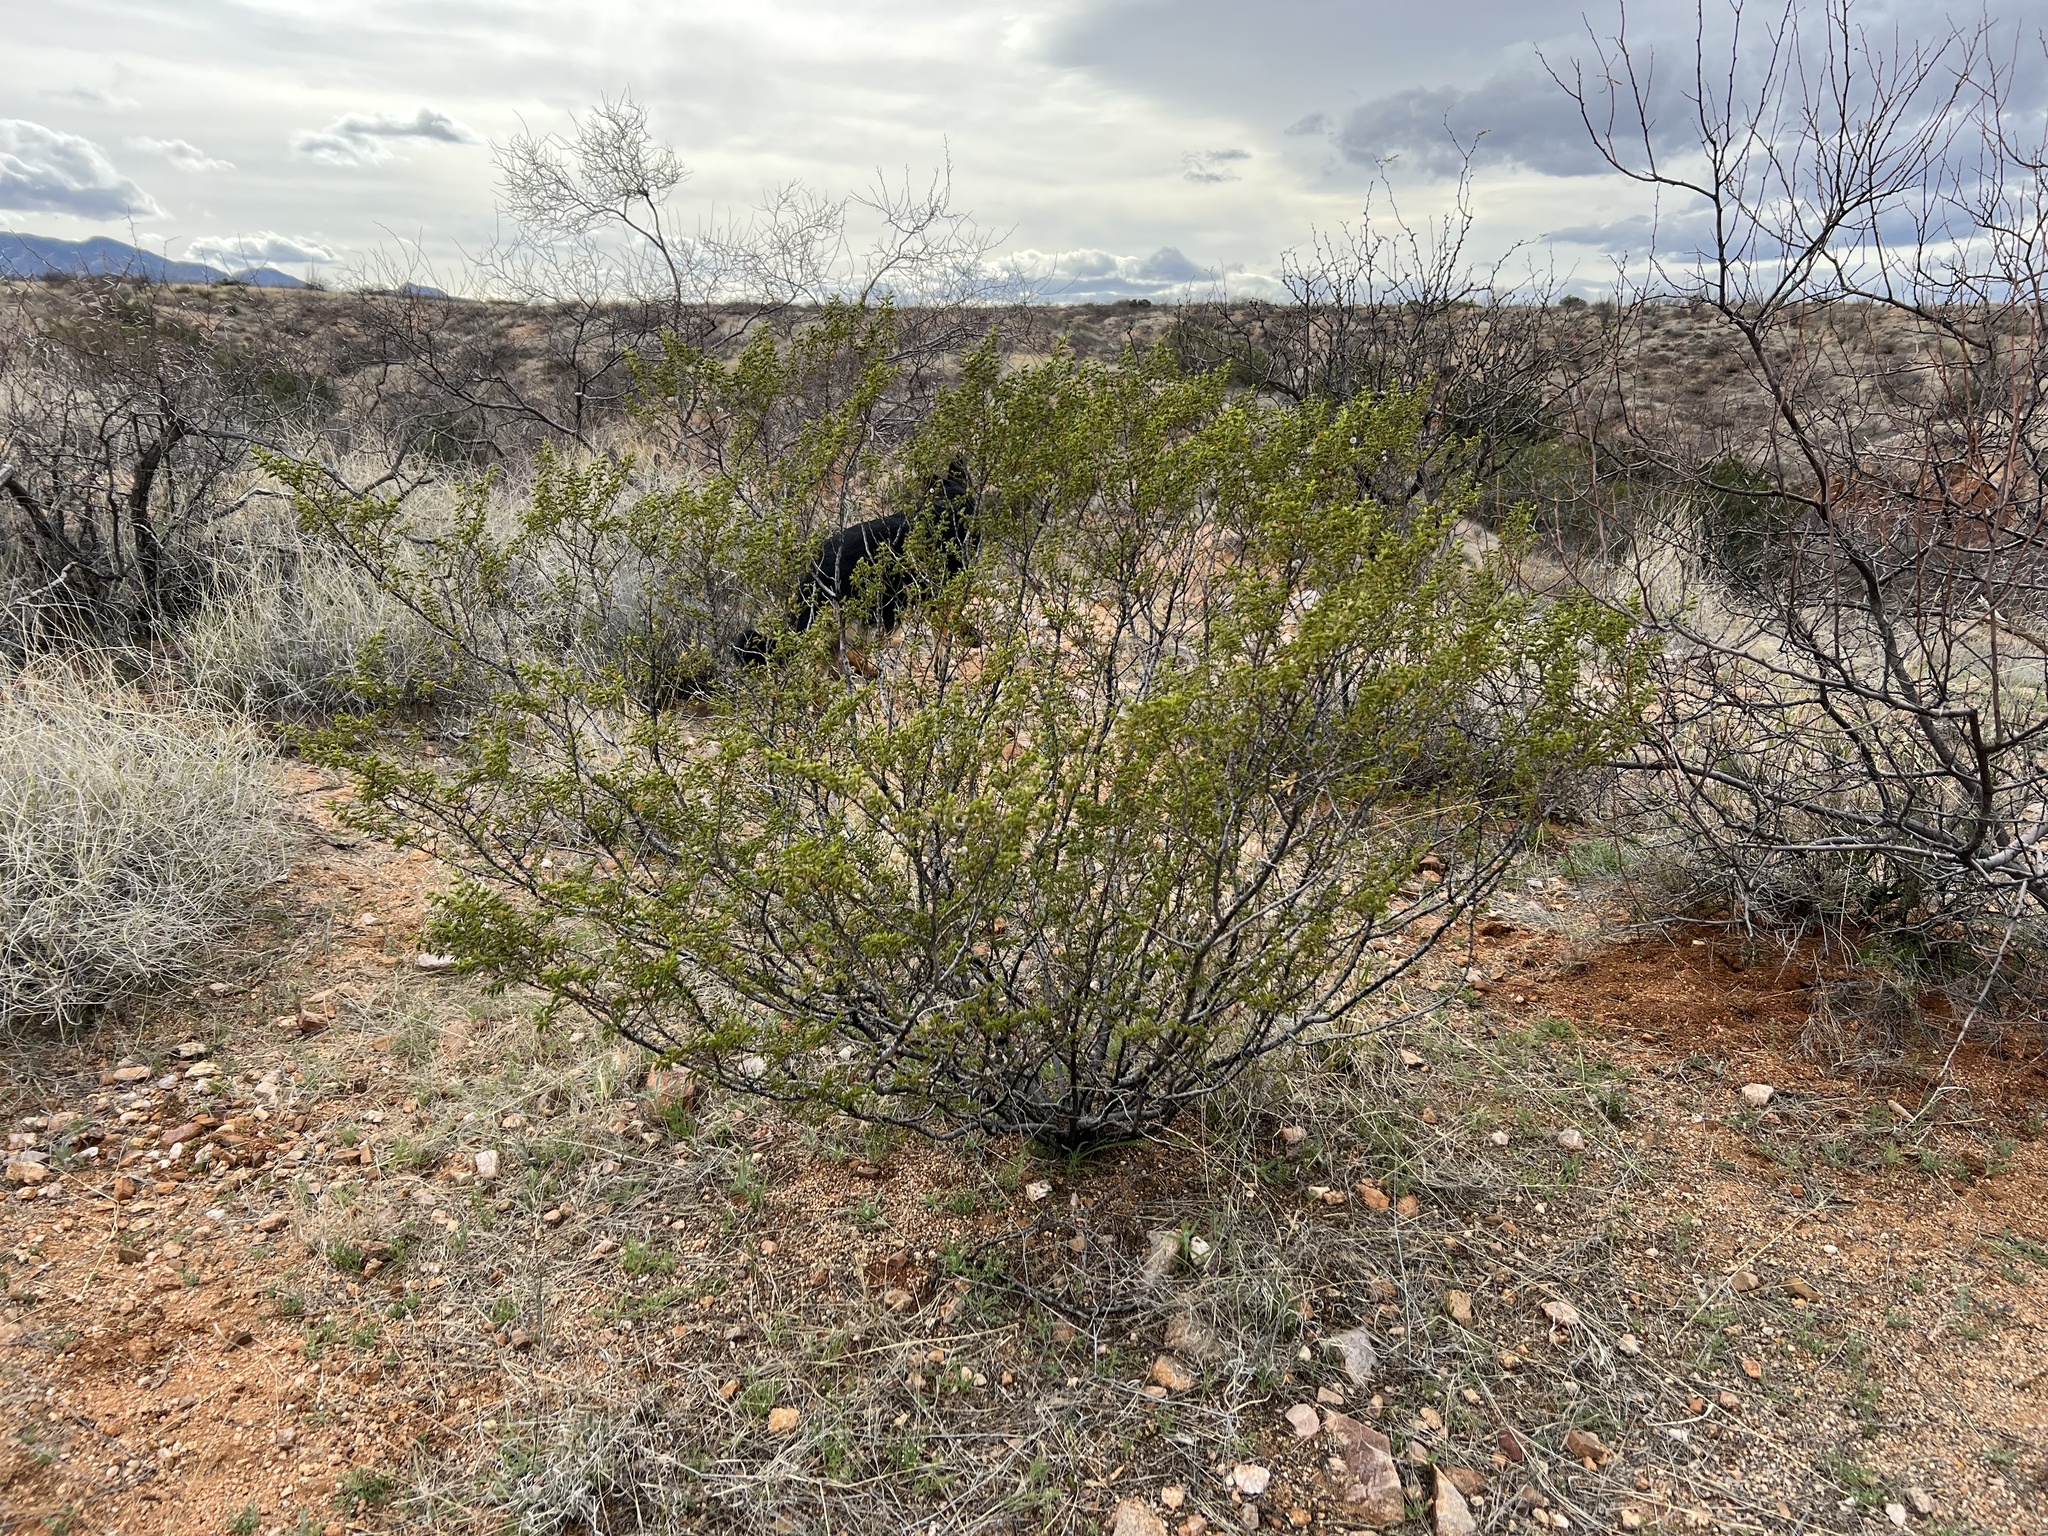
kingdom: Plantae
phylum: Tracheophyta
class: Magnoliopsida
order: Zygophyllales
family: Zygophyllaceae
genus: Larrea
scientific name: Larrea tridentata
